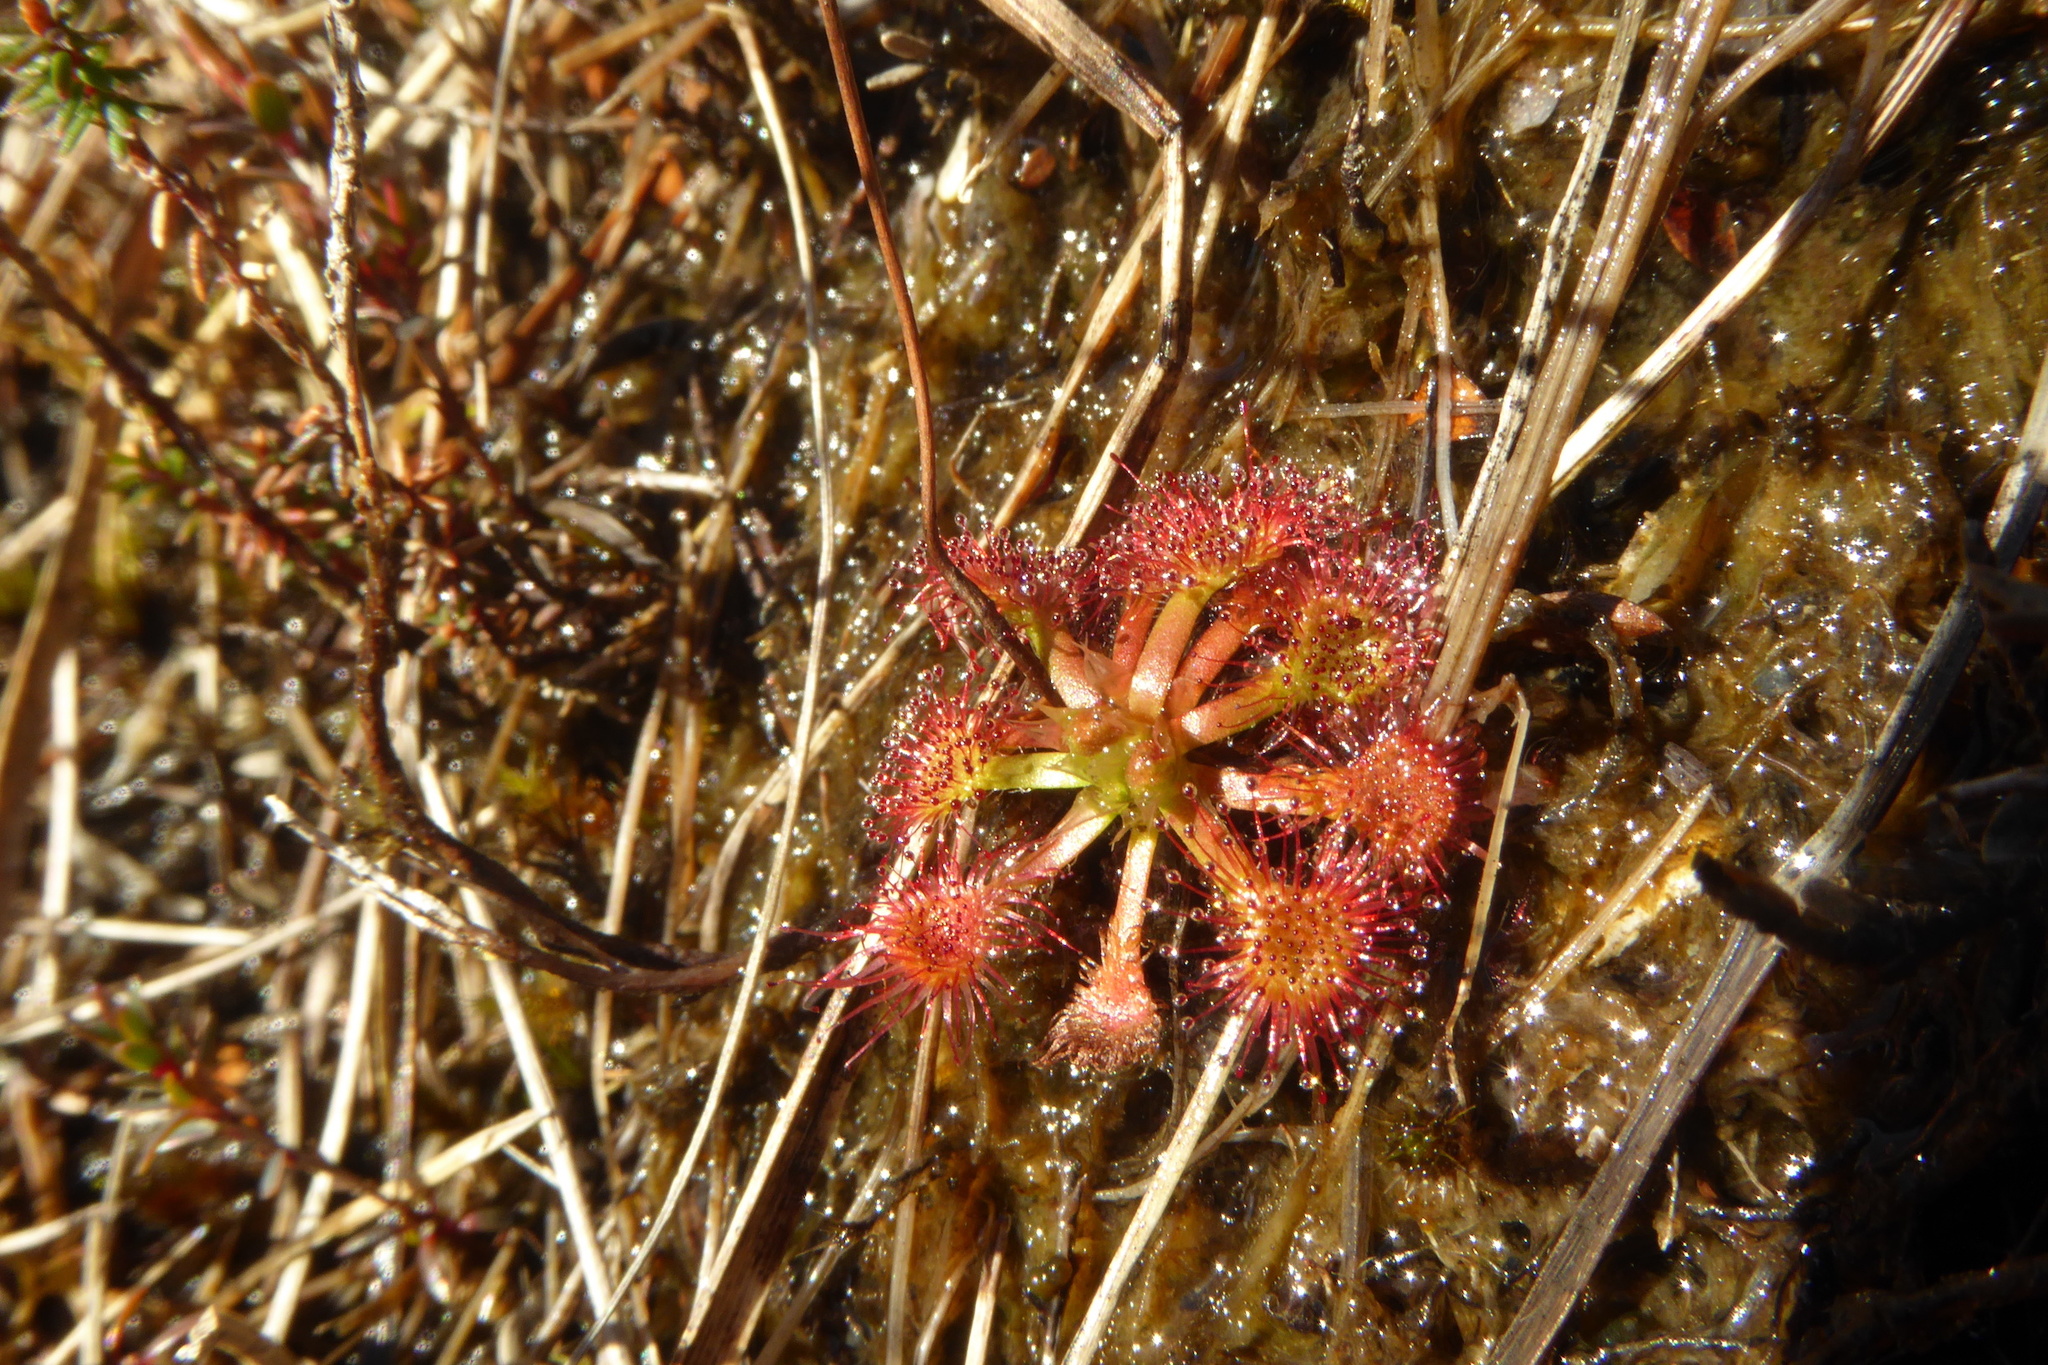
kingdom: Plantae
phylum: Tracheophyta
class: Magnoliopsida
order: Caryophyllales
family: Droseraceae
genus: Drosera
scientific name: Drosera spatulata
